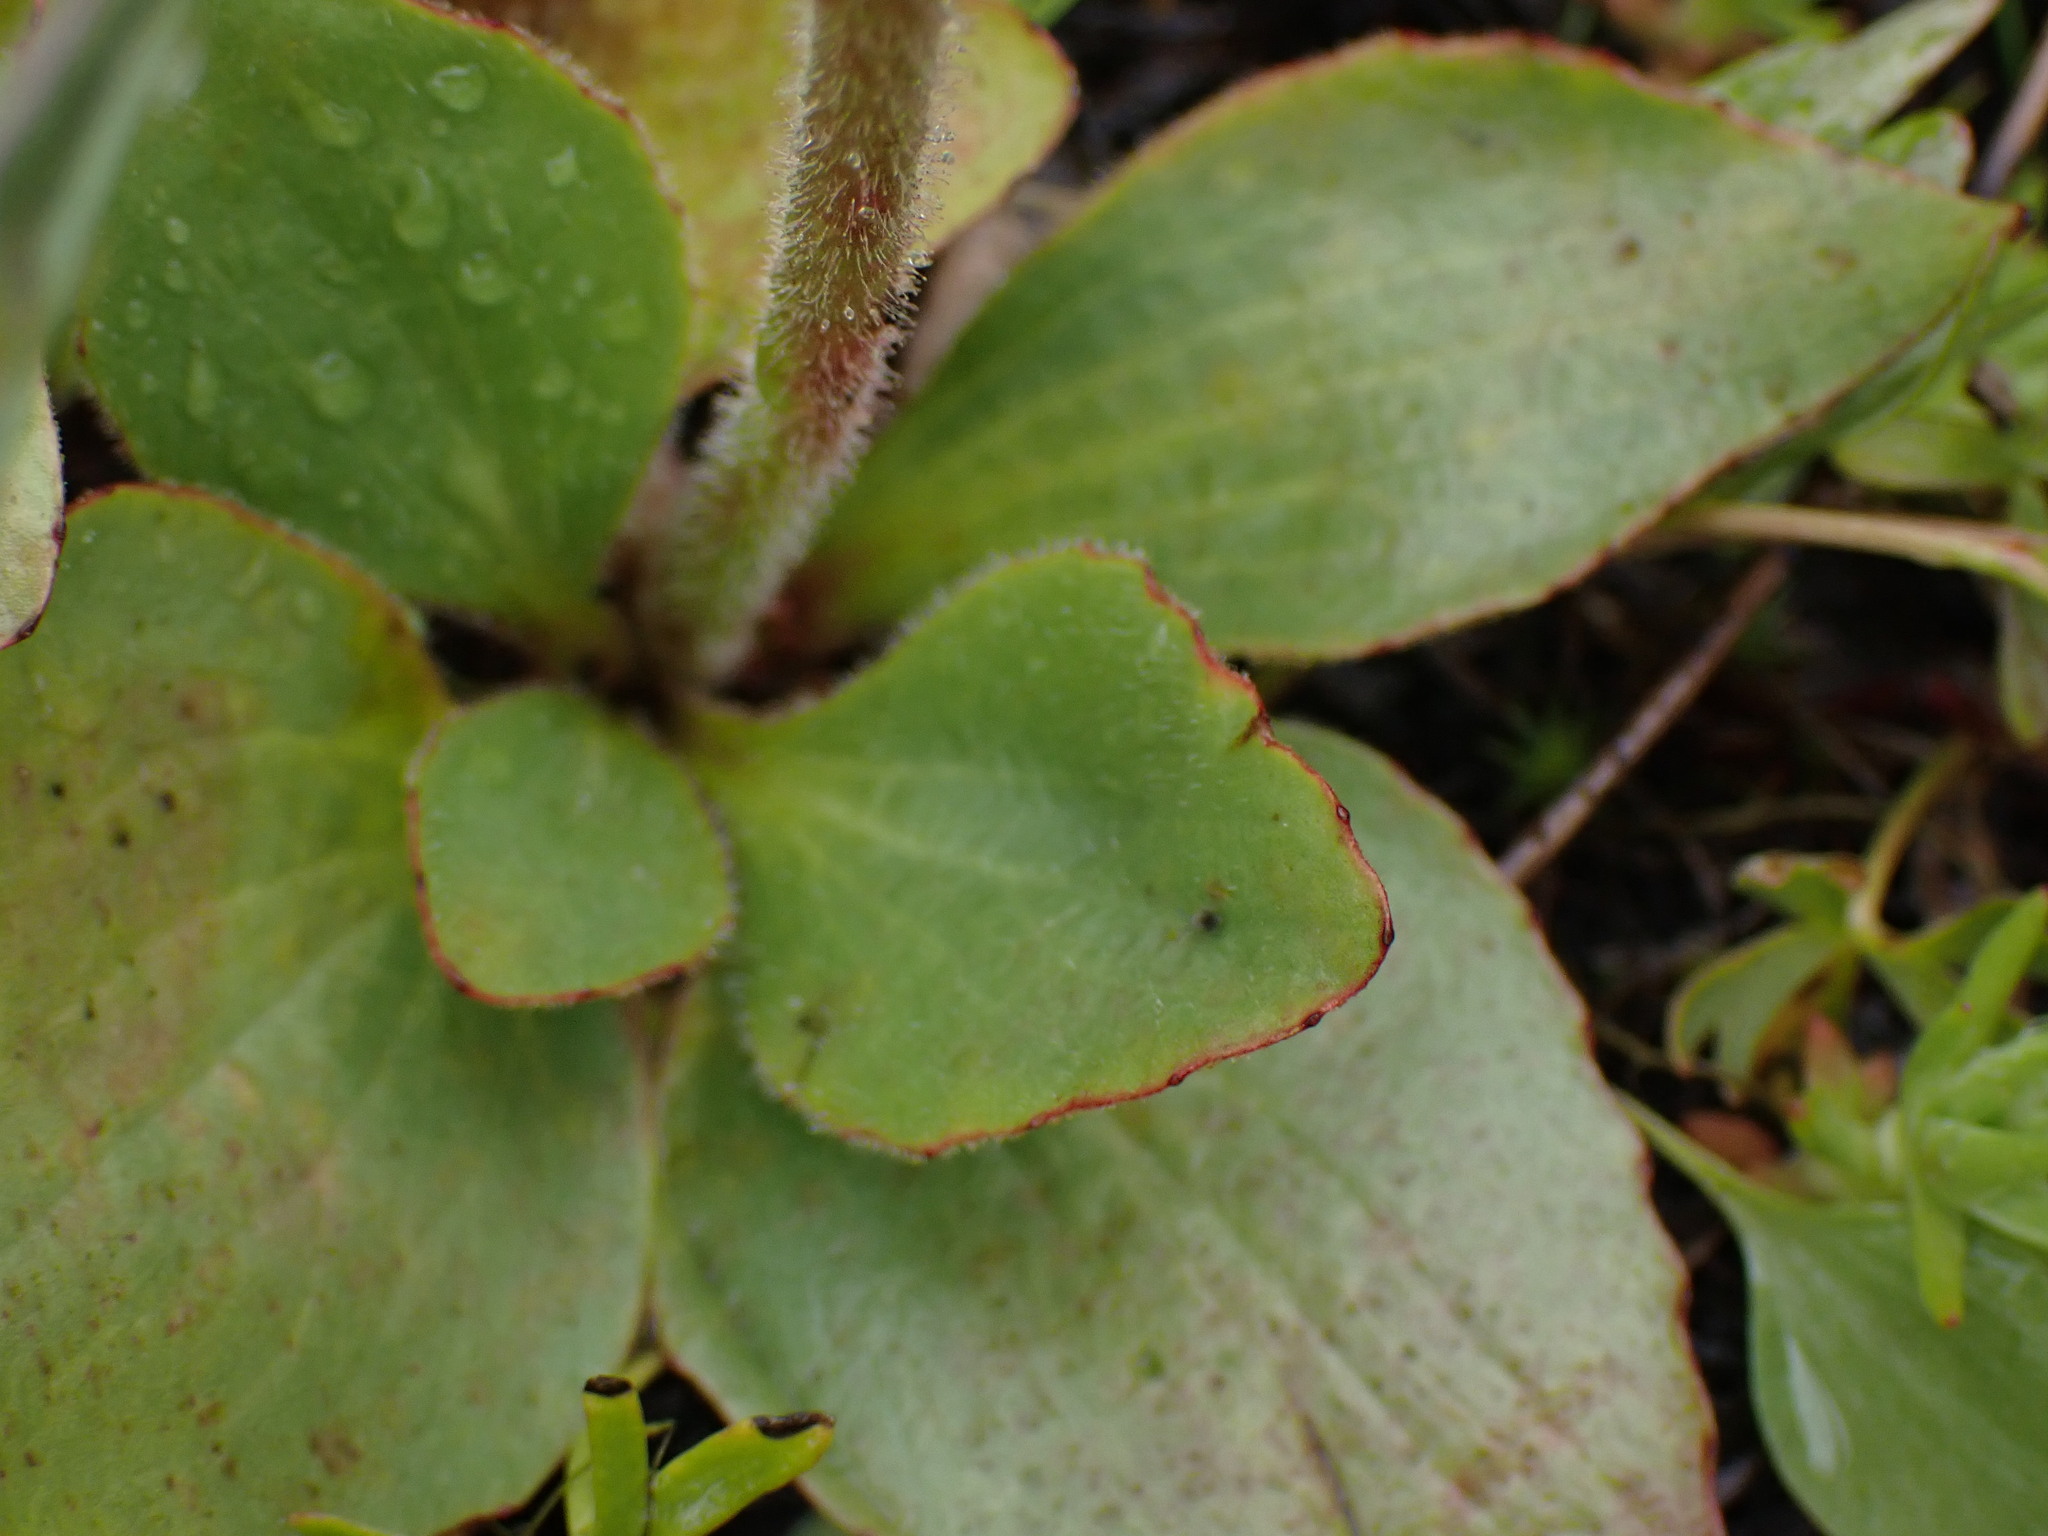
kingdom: Plantae
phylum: Tracheophyta
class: Magnoliopsida
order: Saxifragales
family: Saxifragaceae
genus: Micranthes
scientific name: Micranthes nidifica
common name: Peak saxifrage
